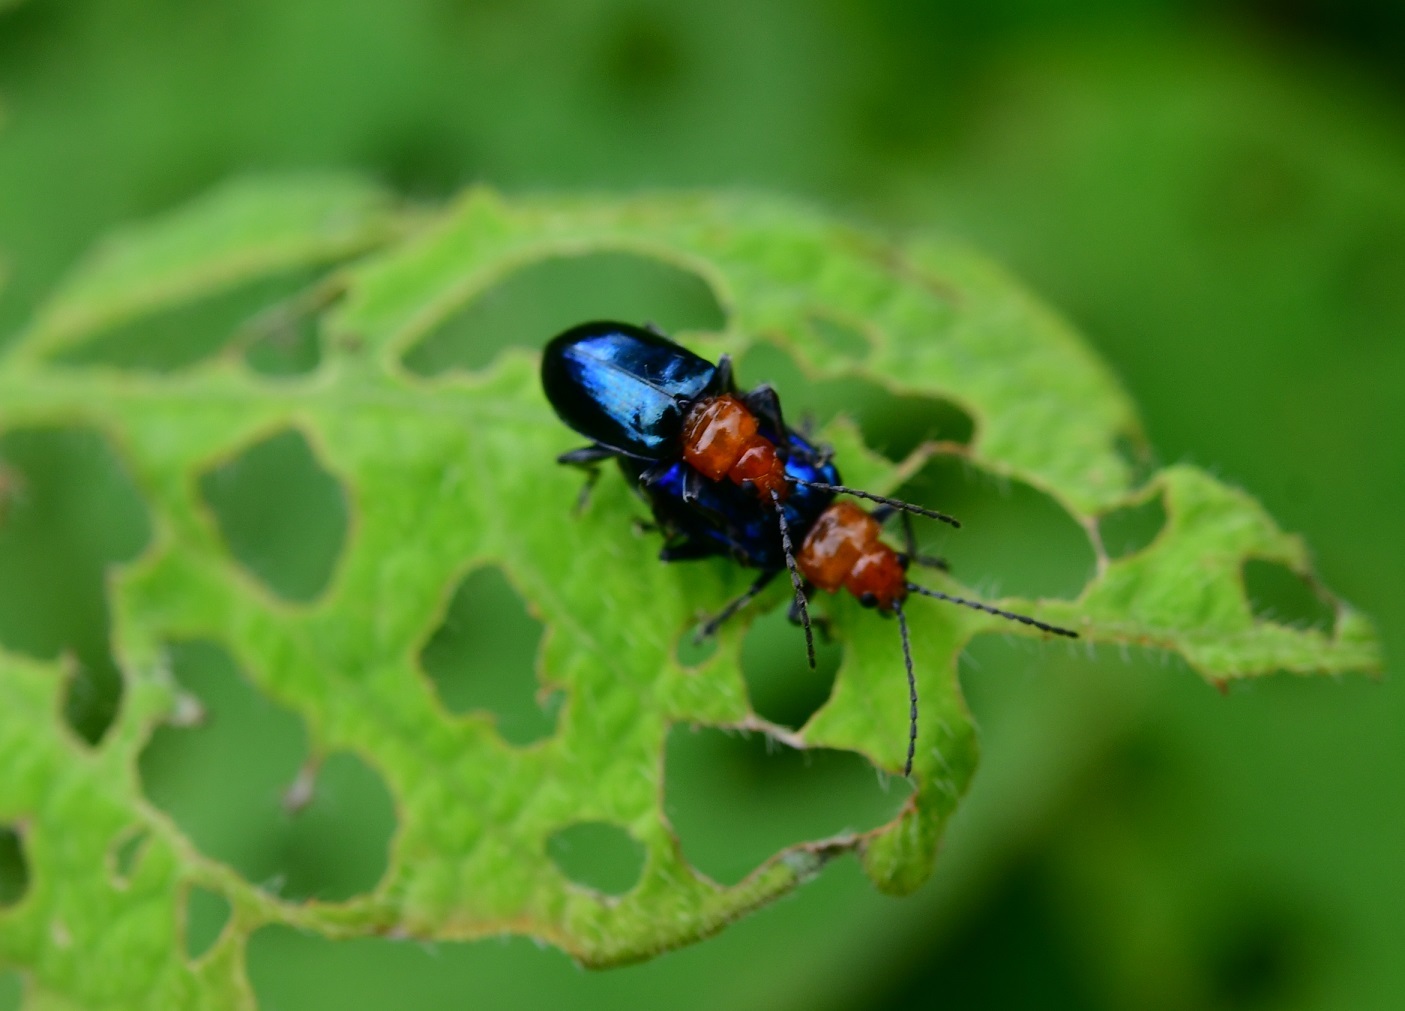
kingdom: Animalia
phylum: Arthropoda
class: Insecta
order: Coleoptera
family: Chrysomelidae
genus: Diphaulaca
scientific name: Diphaulaca wagneri
